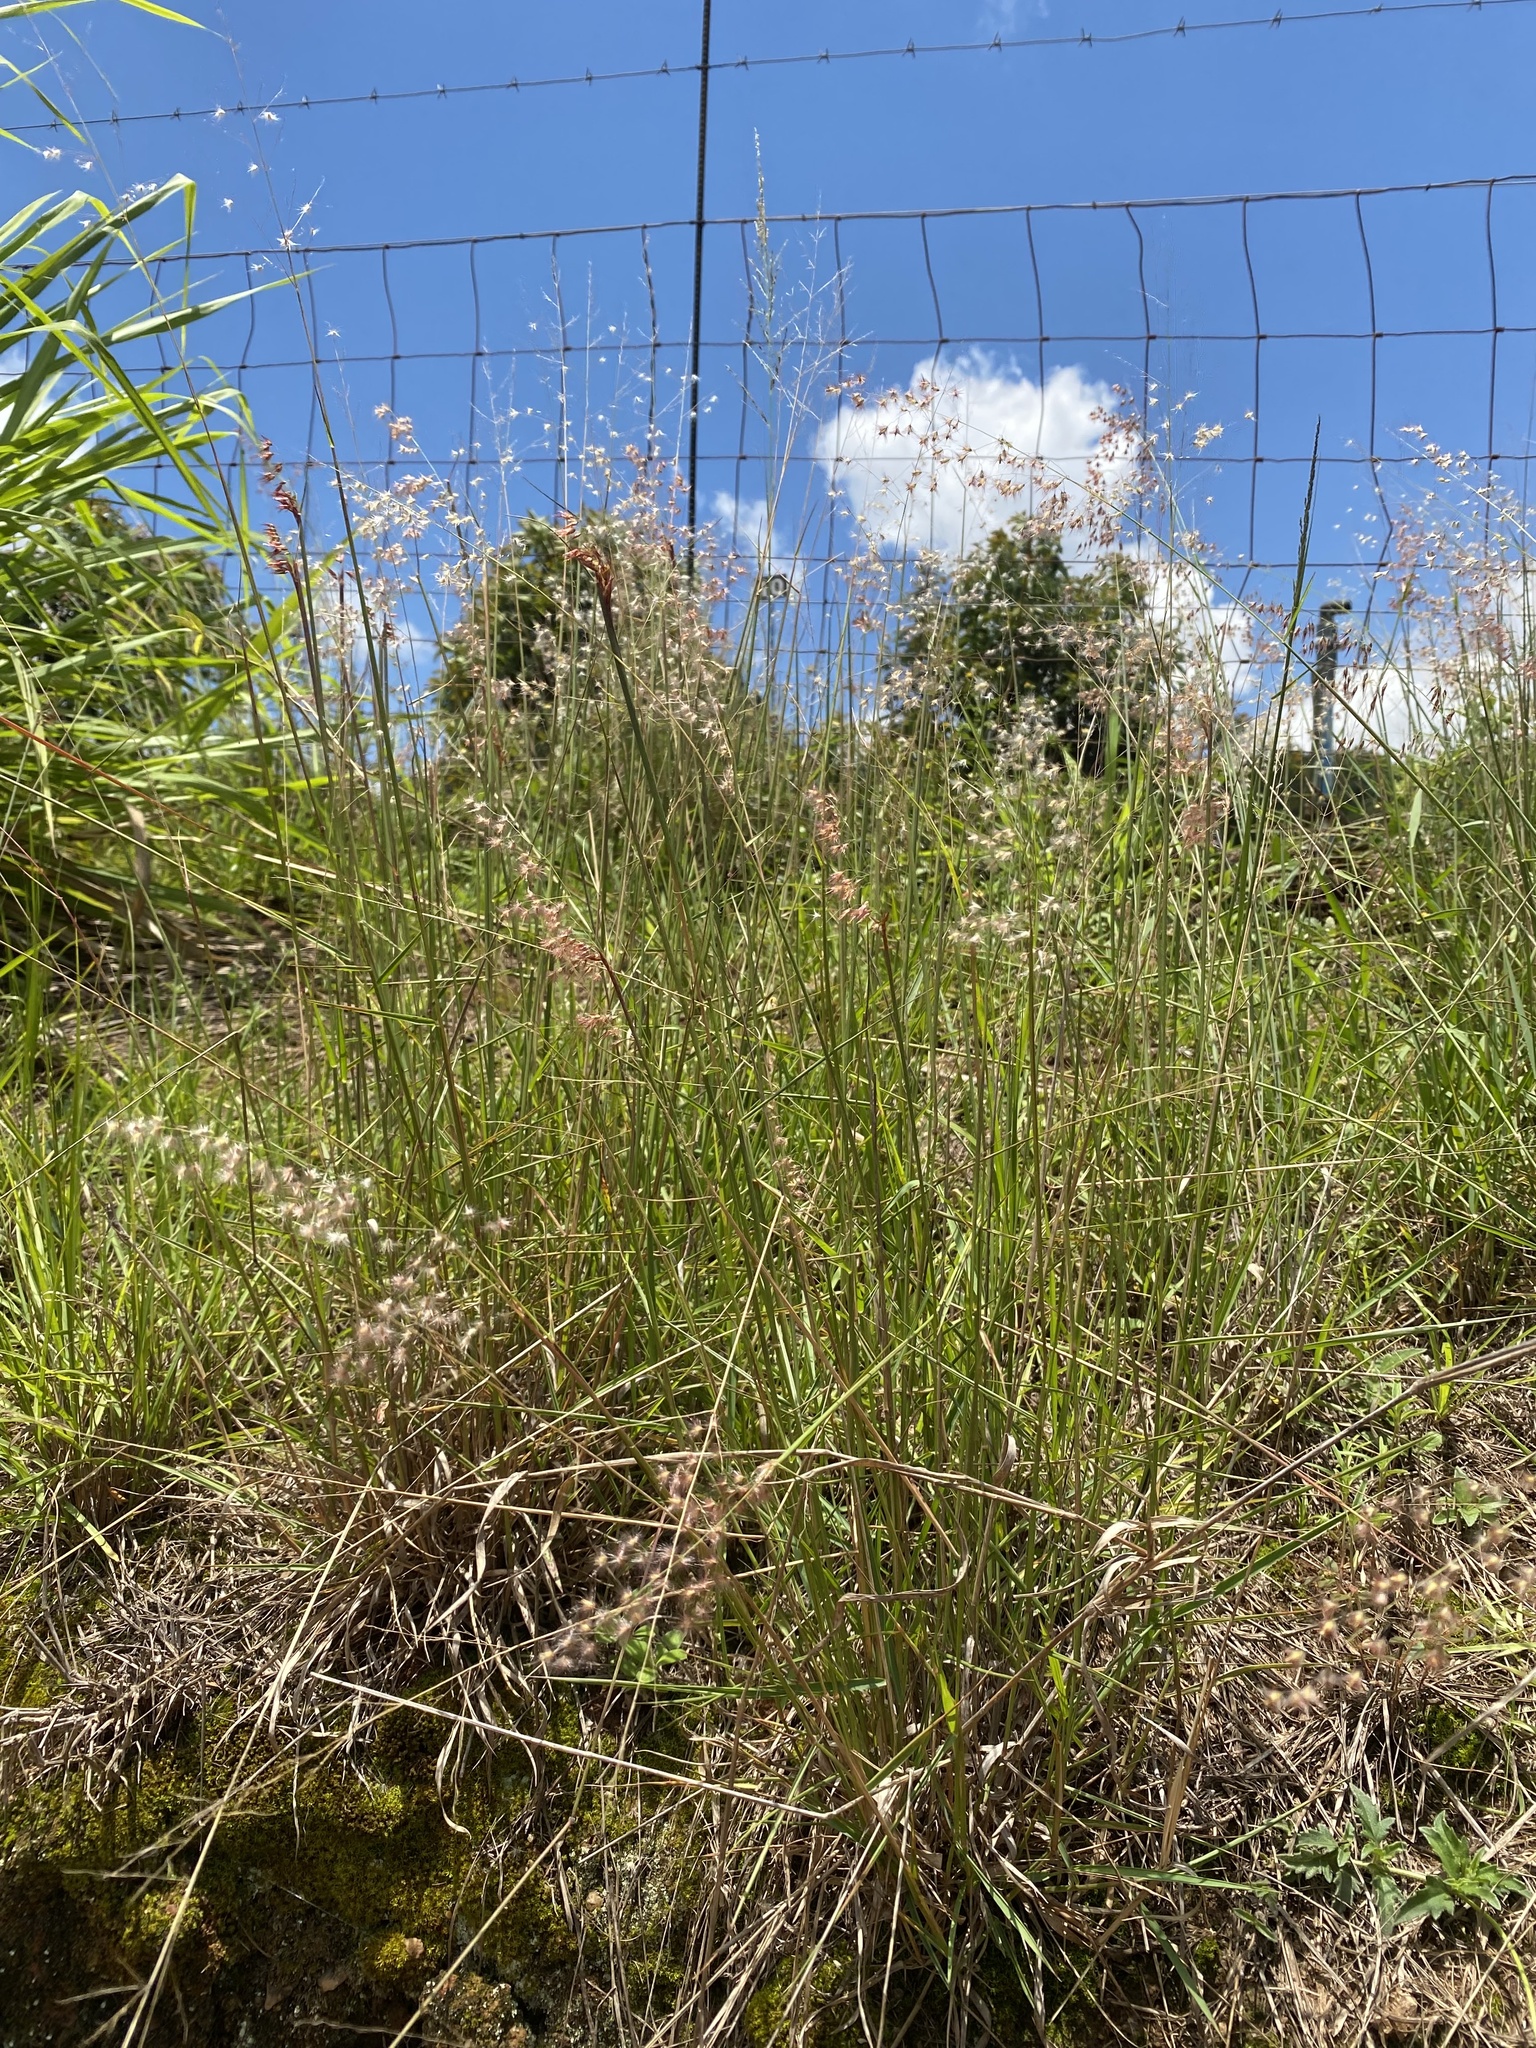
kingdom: Plantae
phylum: Tracheophyta
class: Liliopsida
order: Poales
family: Poaceae
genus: Melinis
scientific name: Melinis repens
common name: Rose natal grass
